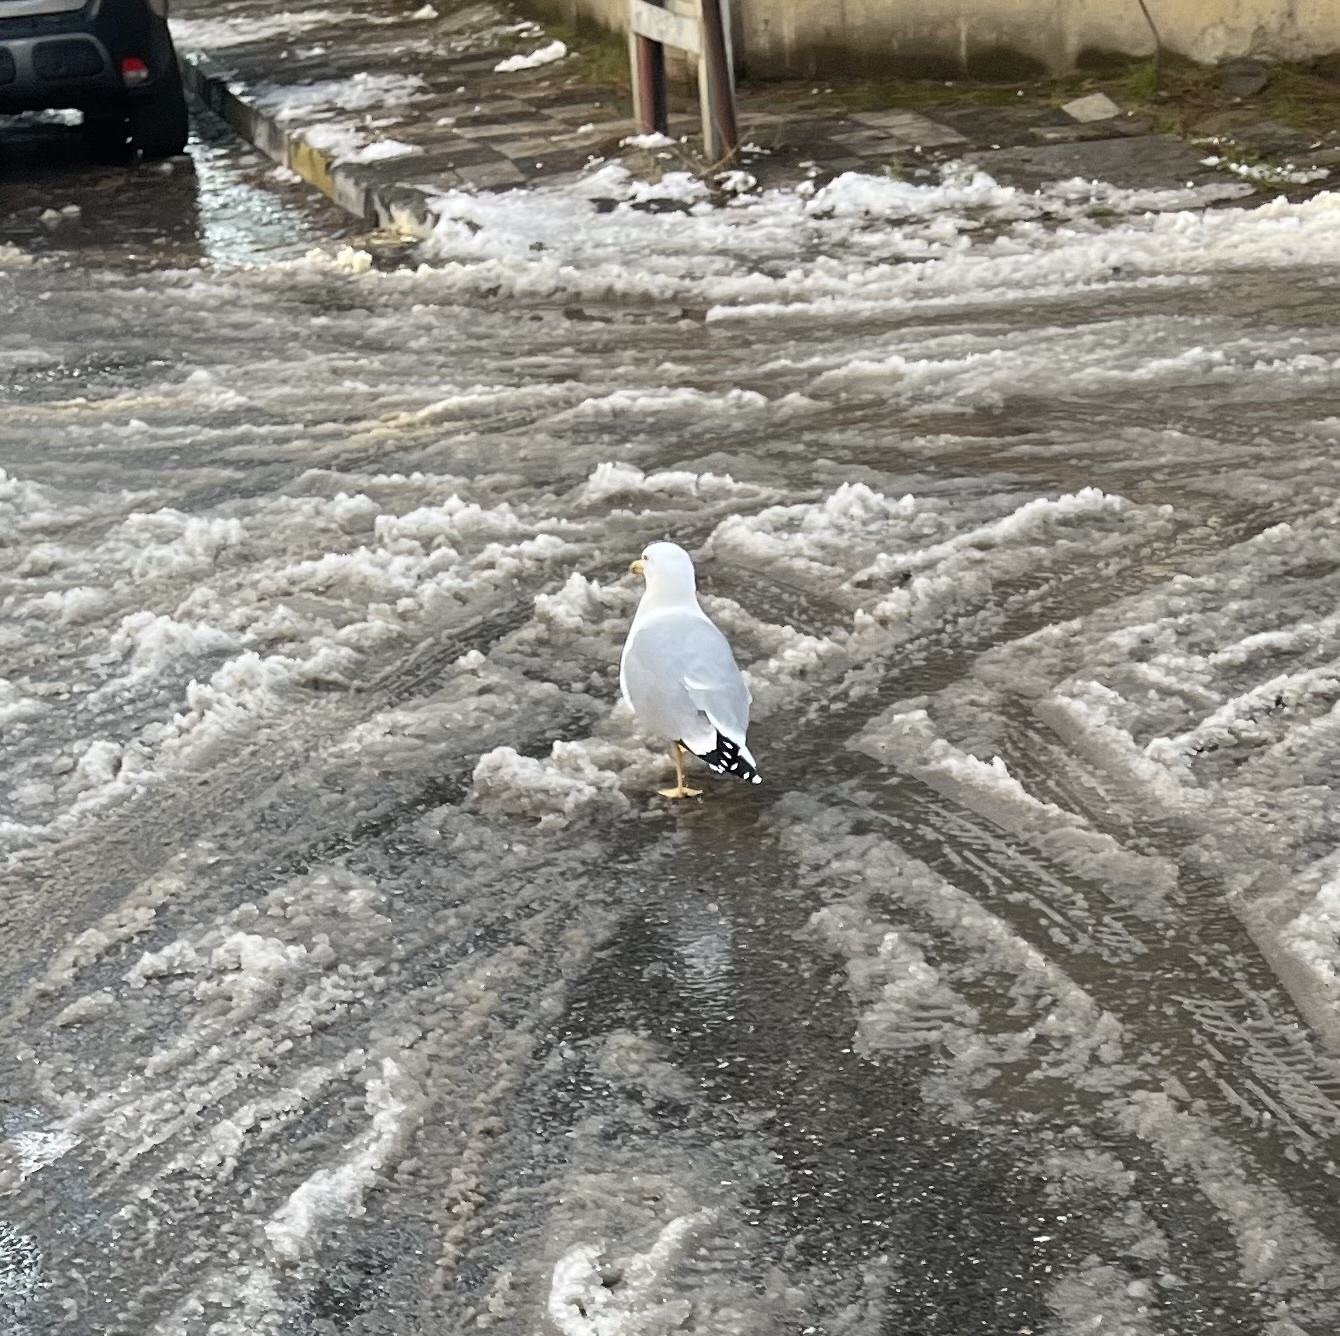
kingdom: Animalia
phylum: Chordata
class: Aves
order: Charadriiformes
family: Laridae
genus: Larus
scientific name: Larus michahellis
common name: Yellow-legged gull
